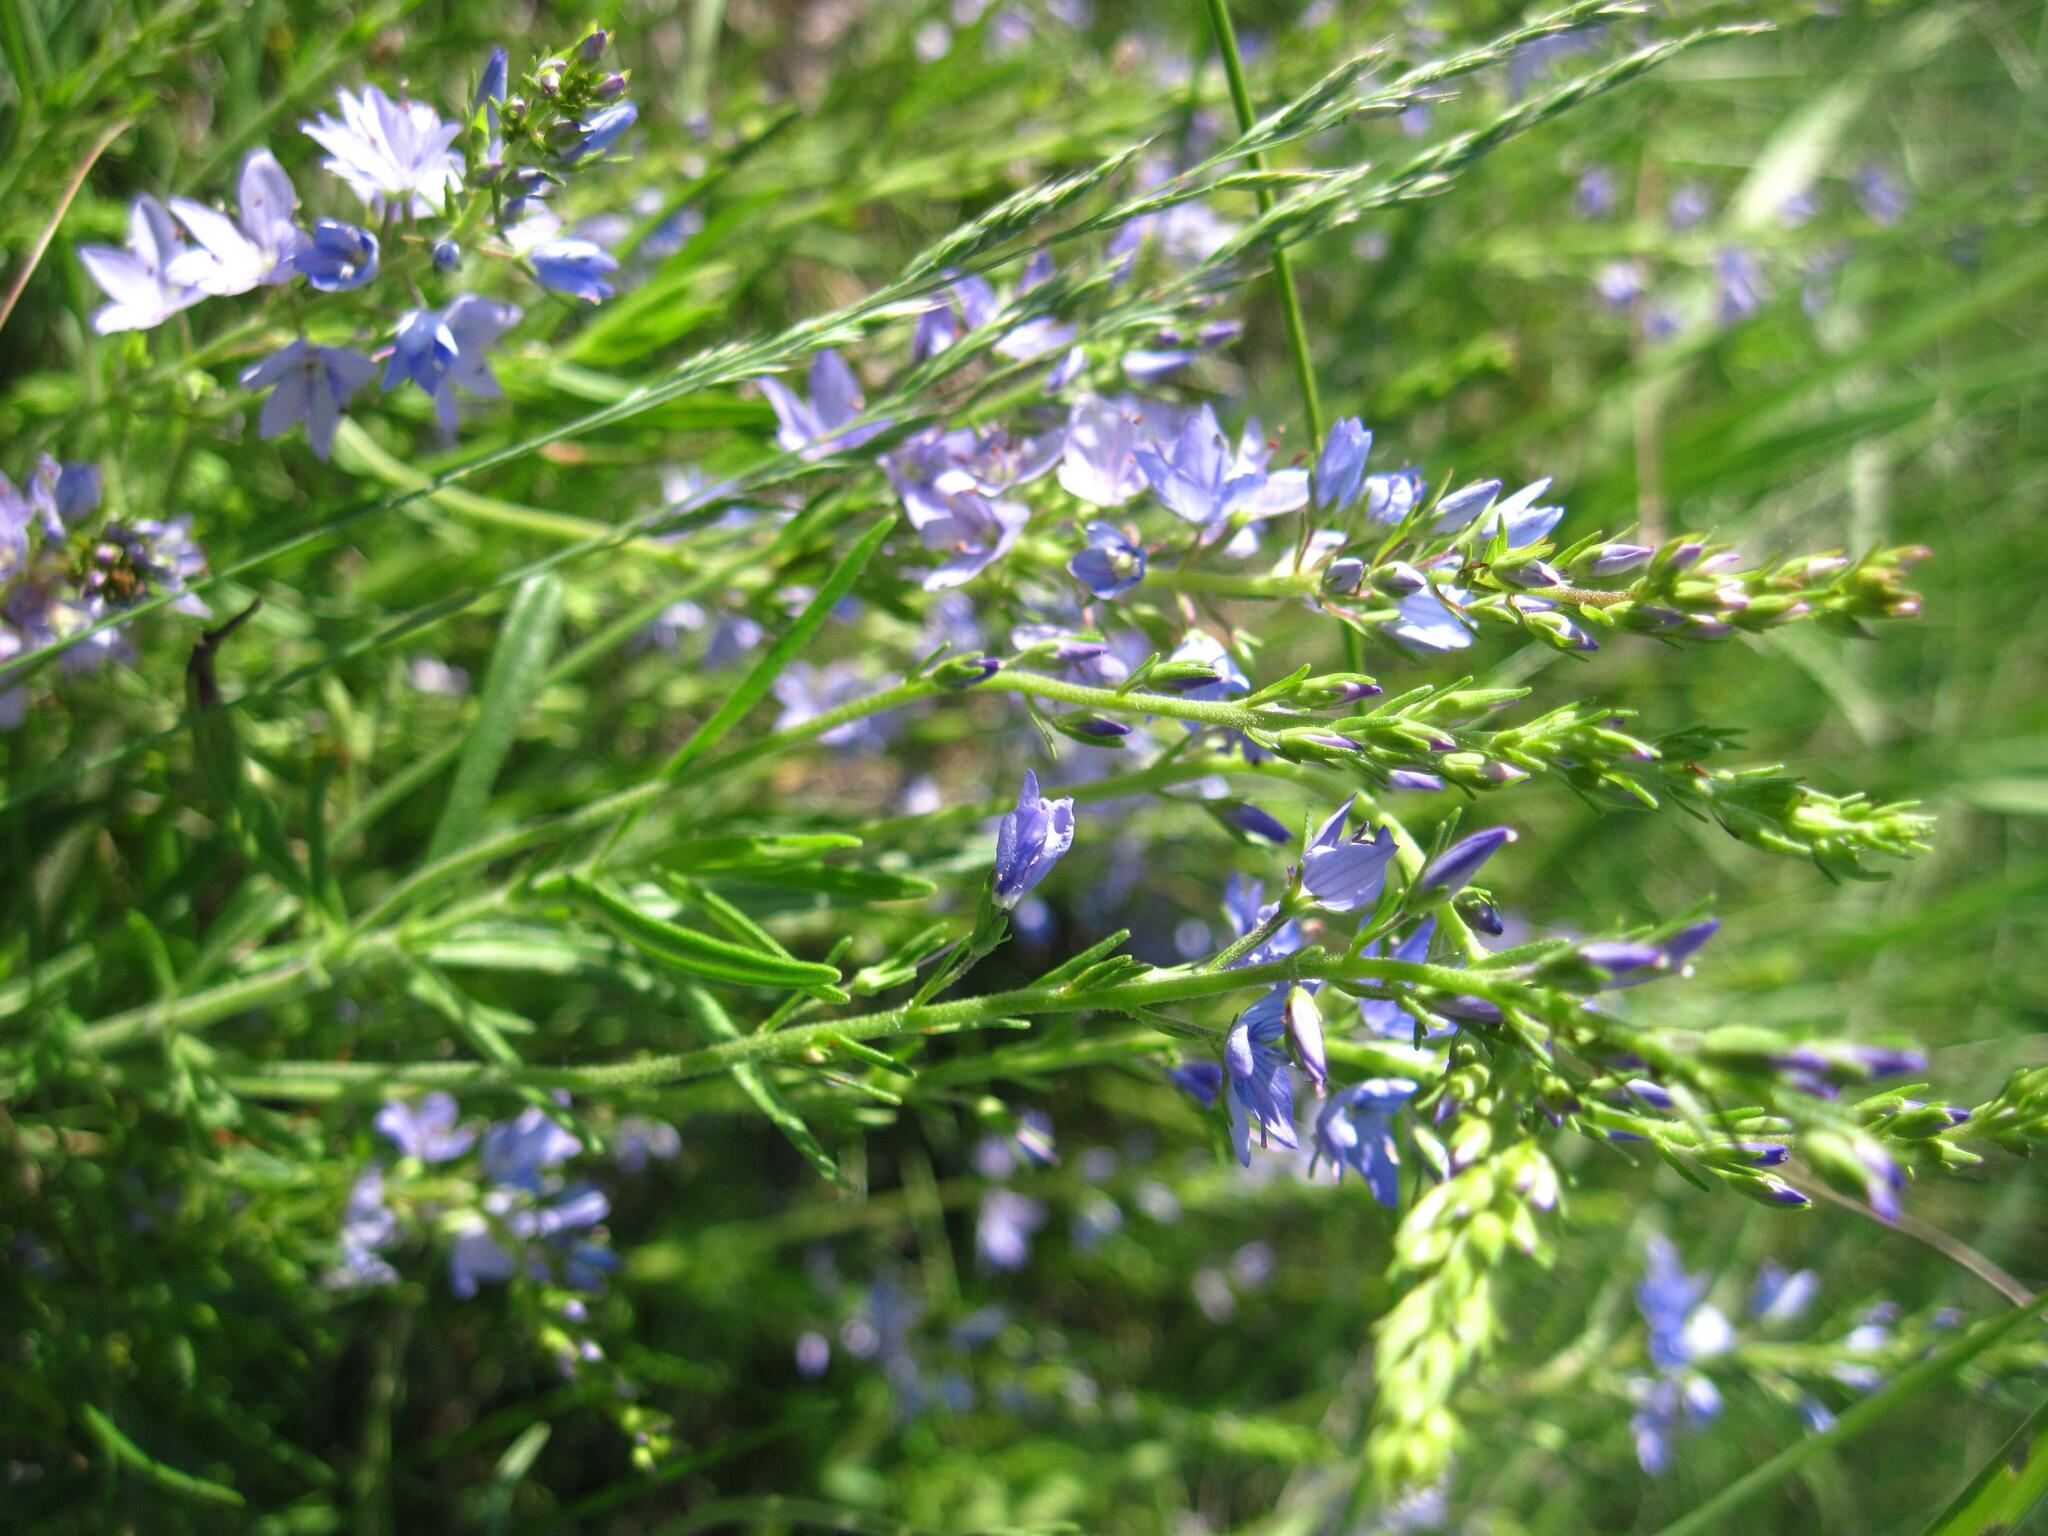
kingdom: Plantae
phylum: Tracheophyta
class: Magnoliopsida
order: Lamiales
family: Plantaginaceae
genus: Veronica
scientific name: Veronica austriaca
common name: Large speedwell
